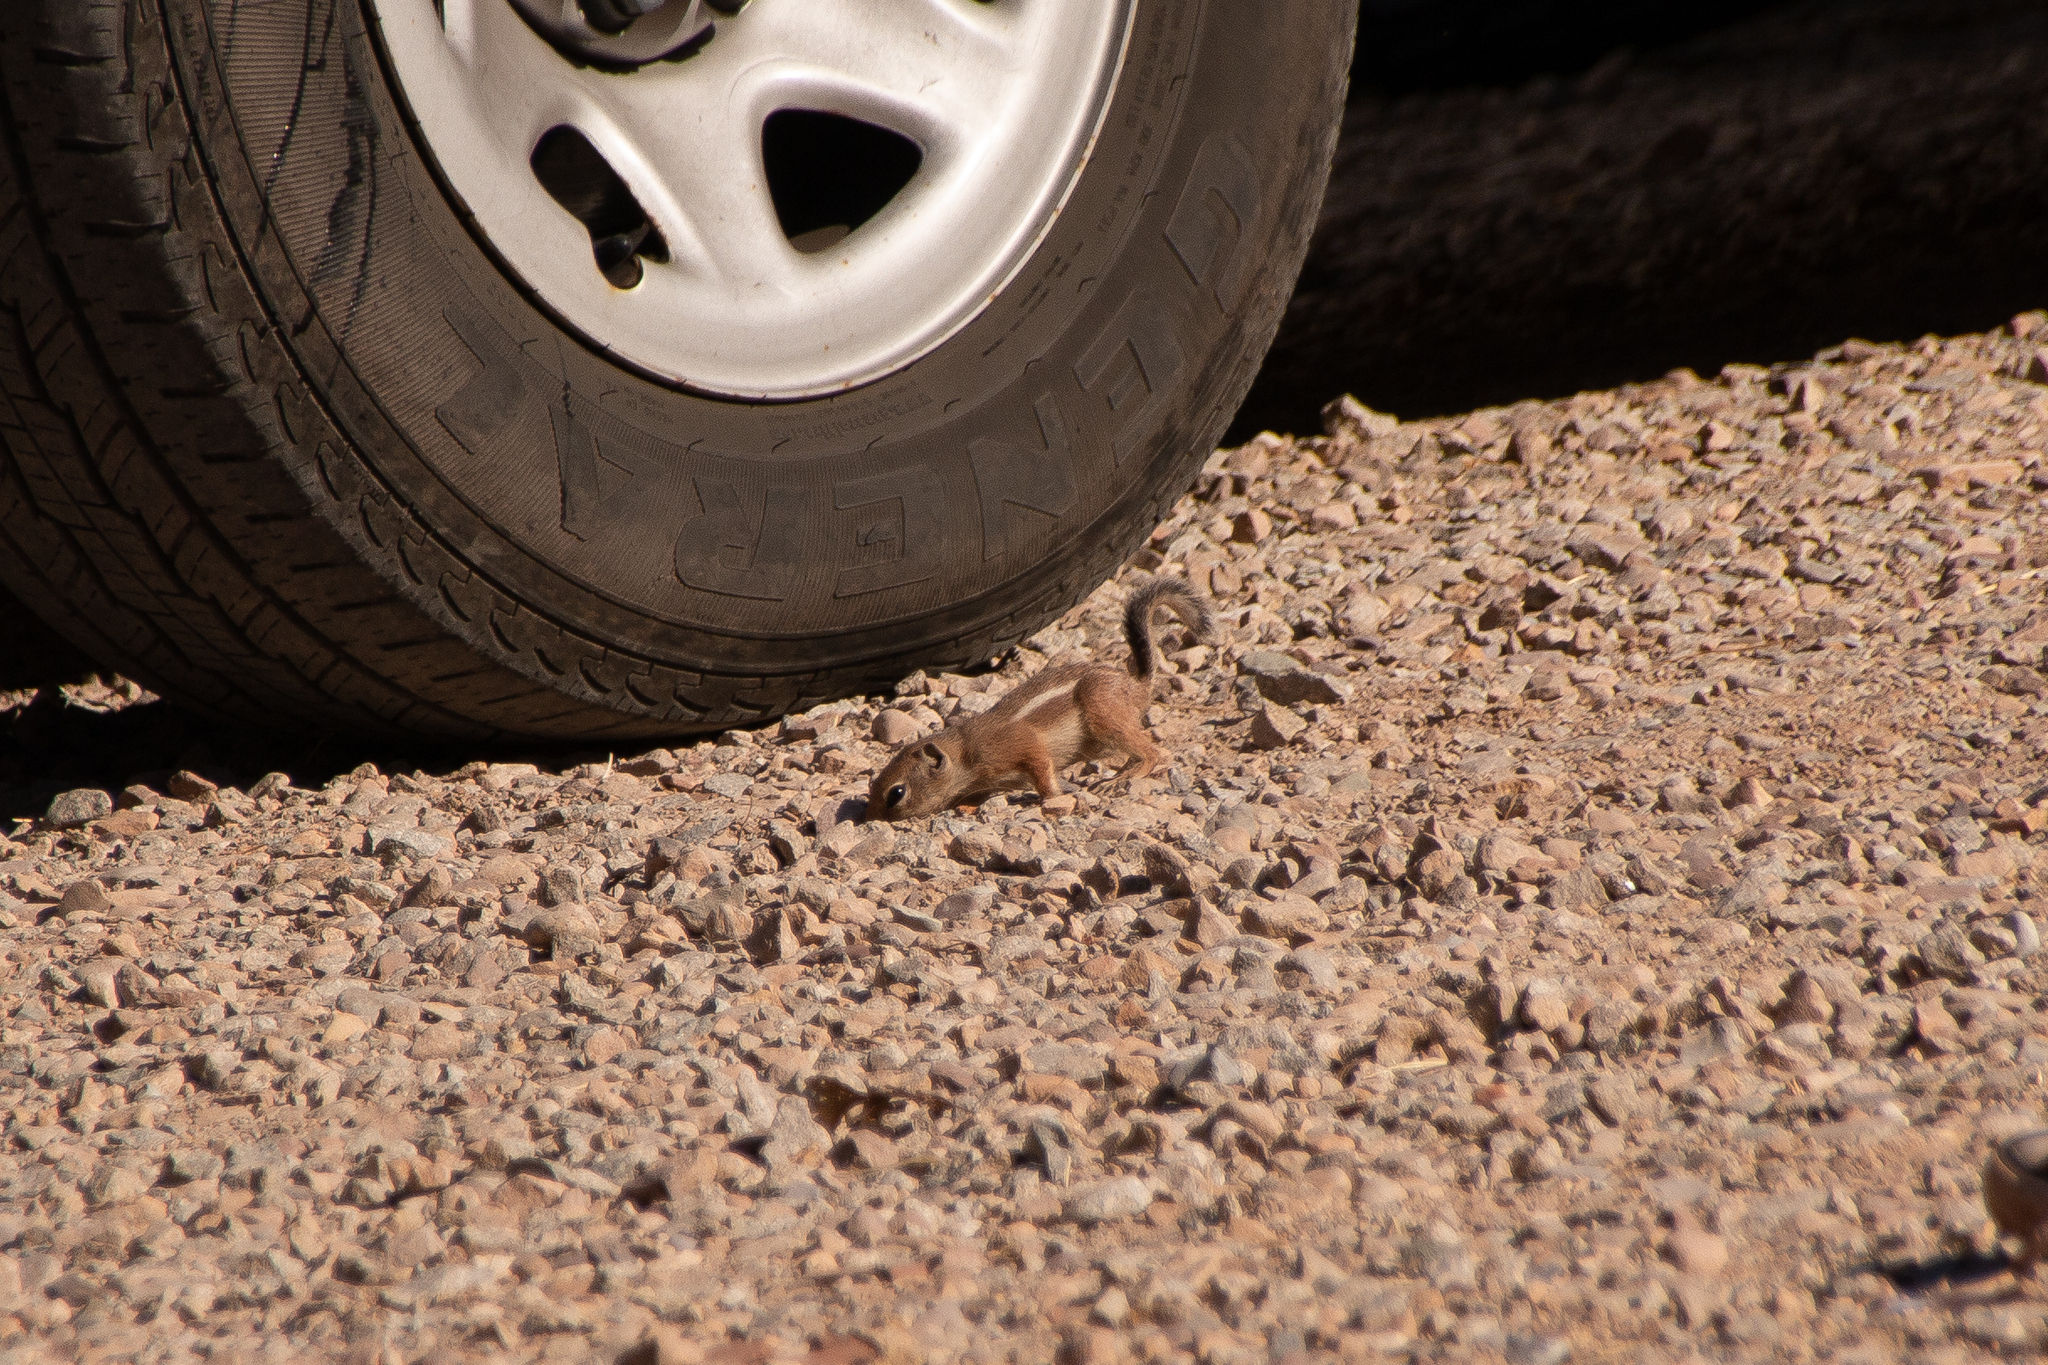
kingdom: Animalia
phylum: Chordata
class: Mammalia
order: Rodentia
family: Sciuridae
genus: Ammospermophilus
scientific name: Ammospermophilus leucurus
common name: White-tailed antelope squirrel
